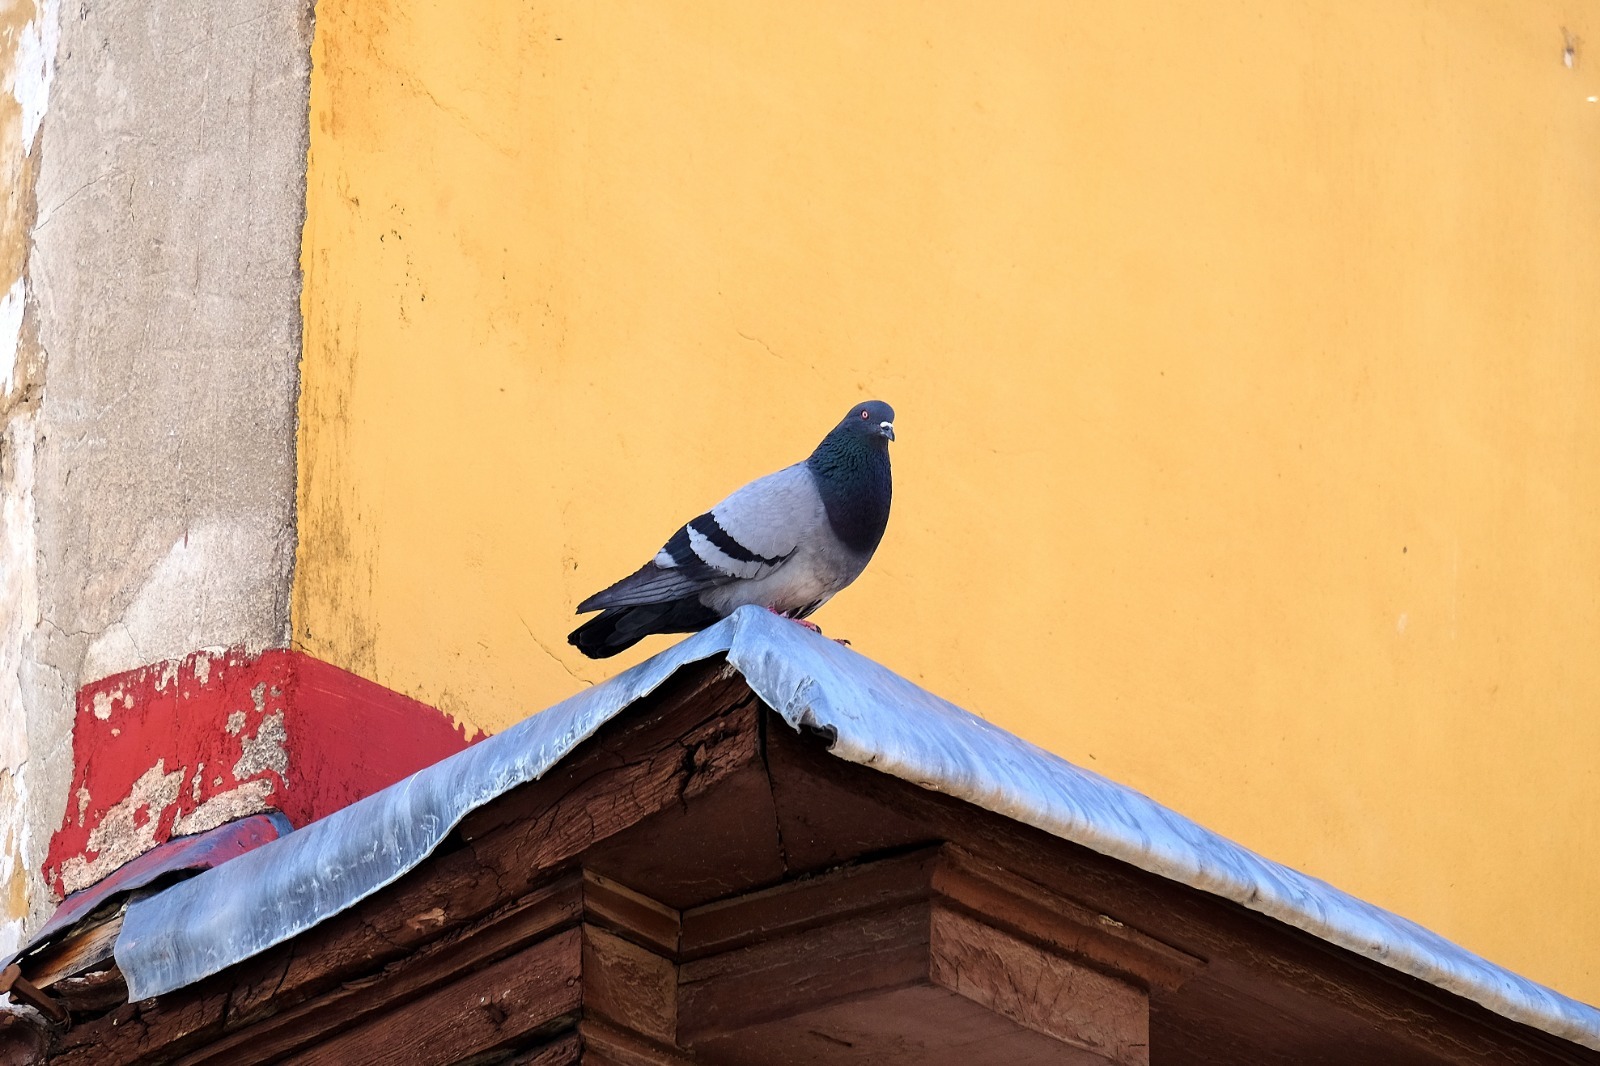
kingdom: Animalia
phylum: Chordata
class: Aves
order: Columbiformes
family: Columbidae
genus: Columba
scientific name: Columba livia
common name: Rock pigeon
